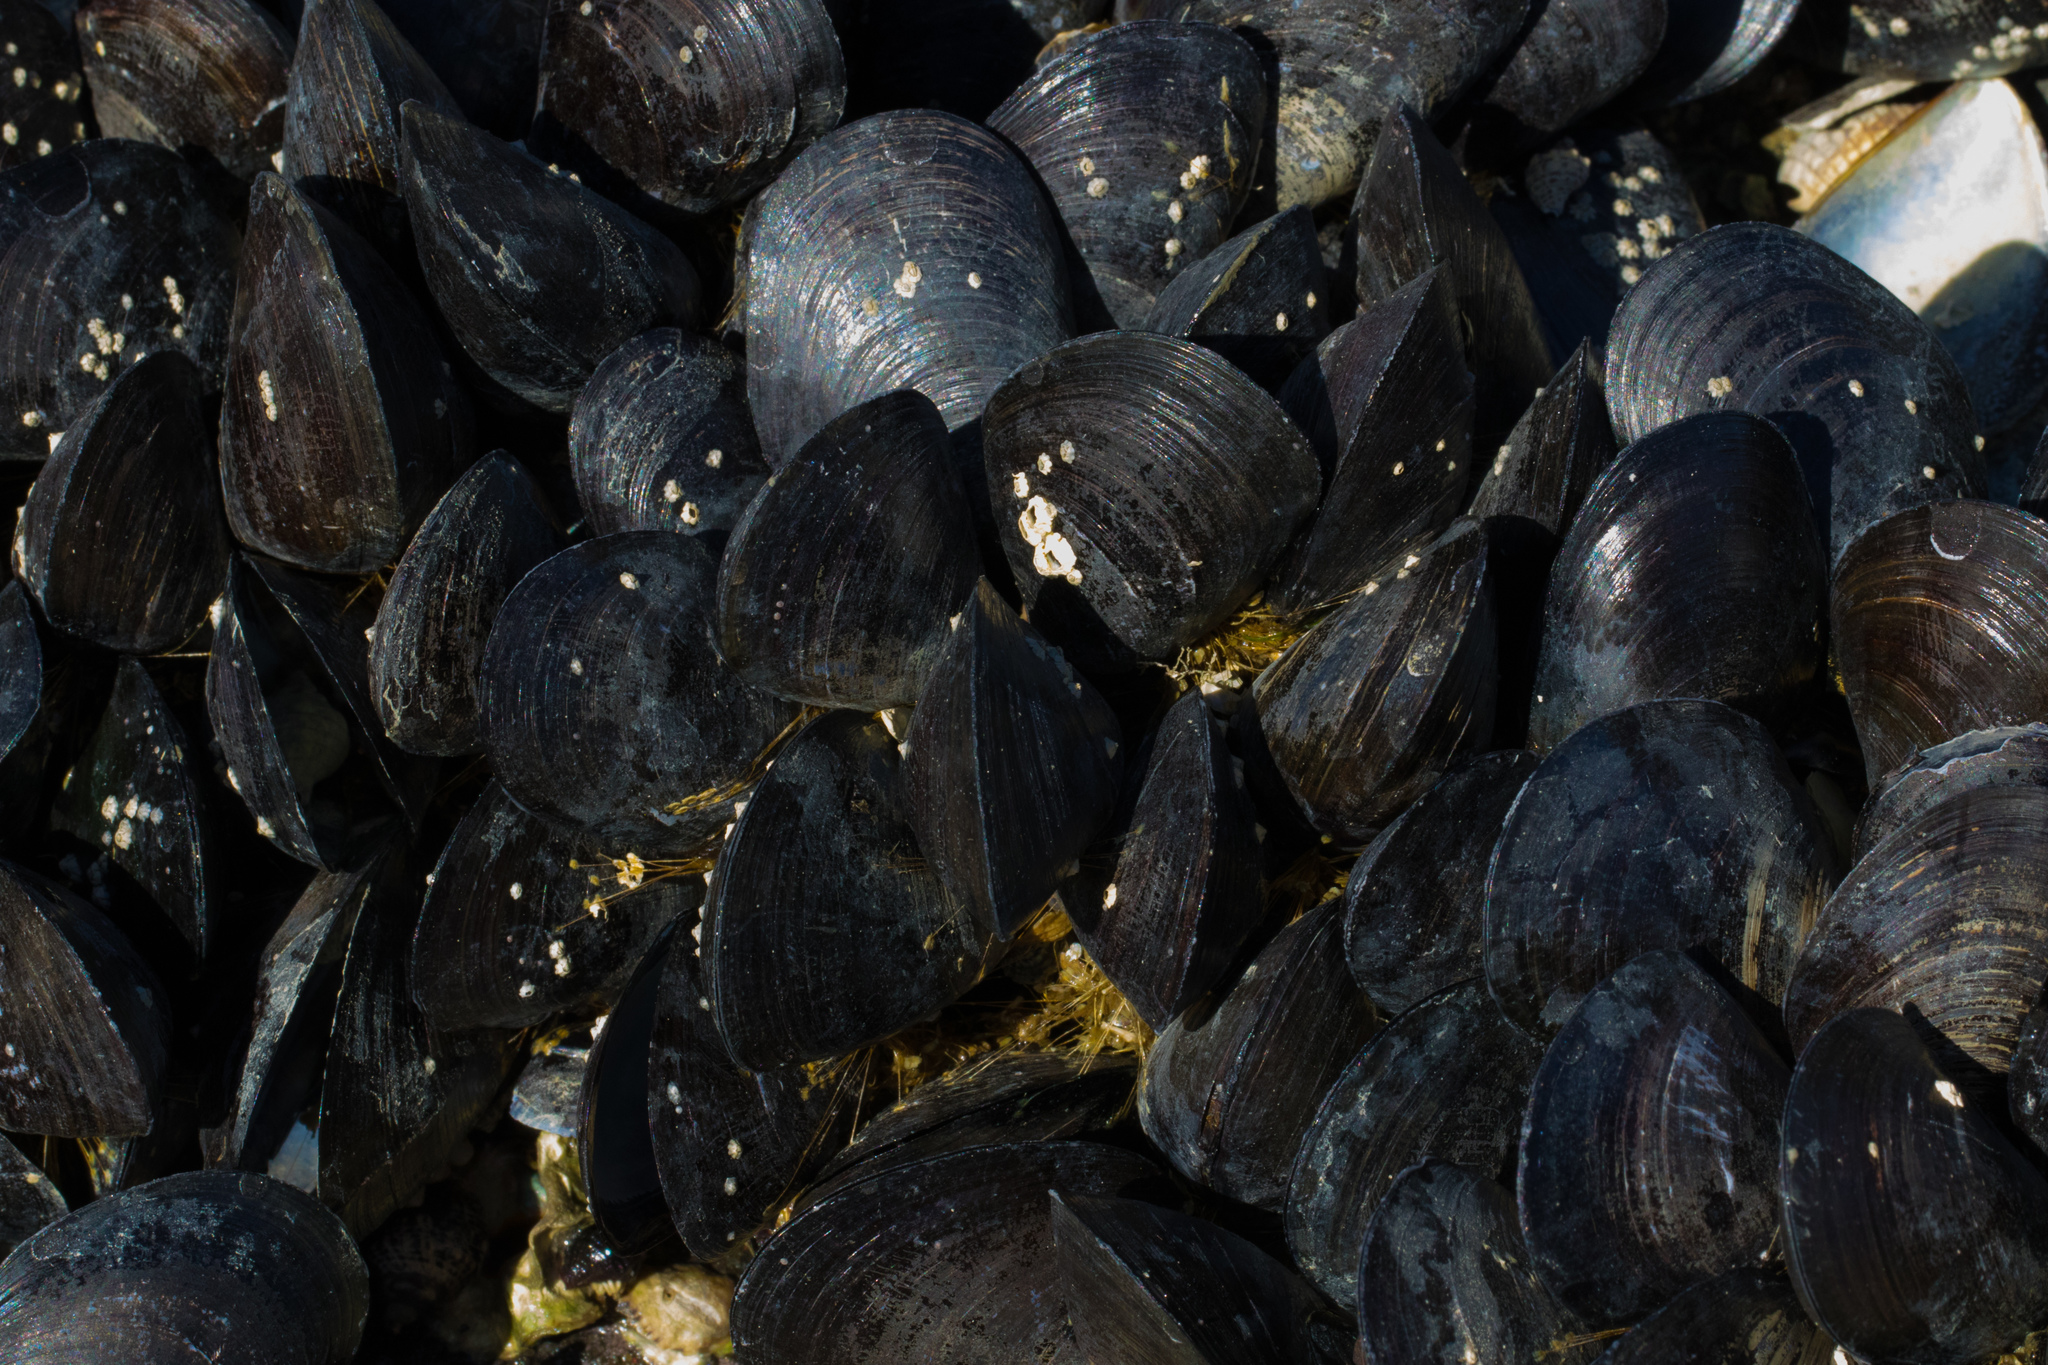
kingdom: Animalia
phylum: Mollusca
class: Bivalvia
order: Mytilida
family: Mytilidae
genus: Mytilus
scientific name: Mytilus planulatus
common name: Australian mussel
